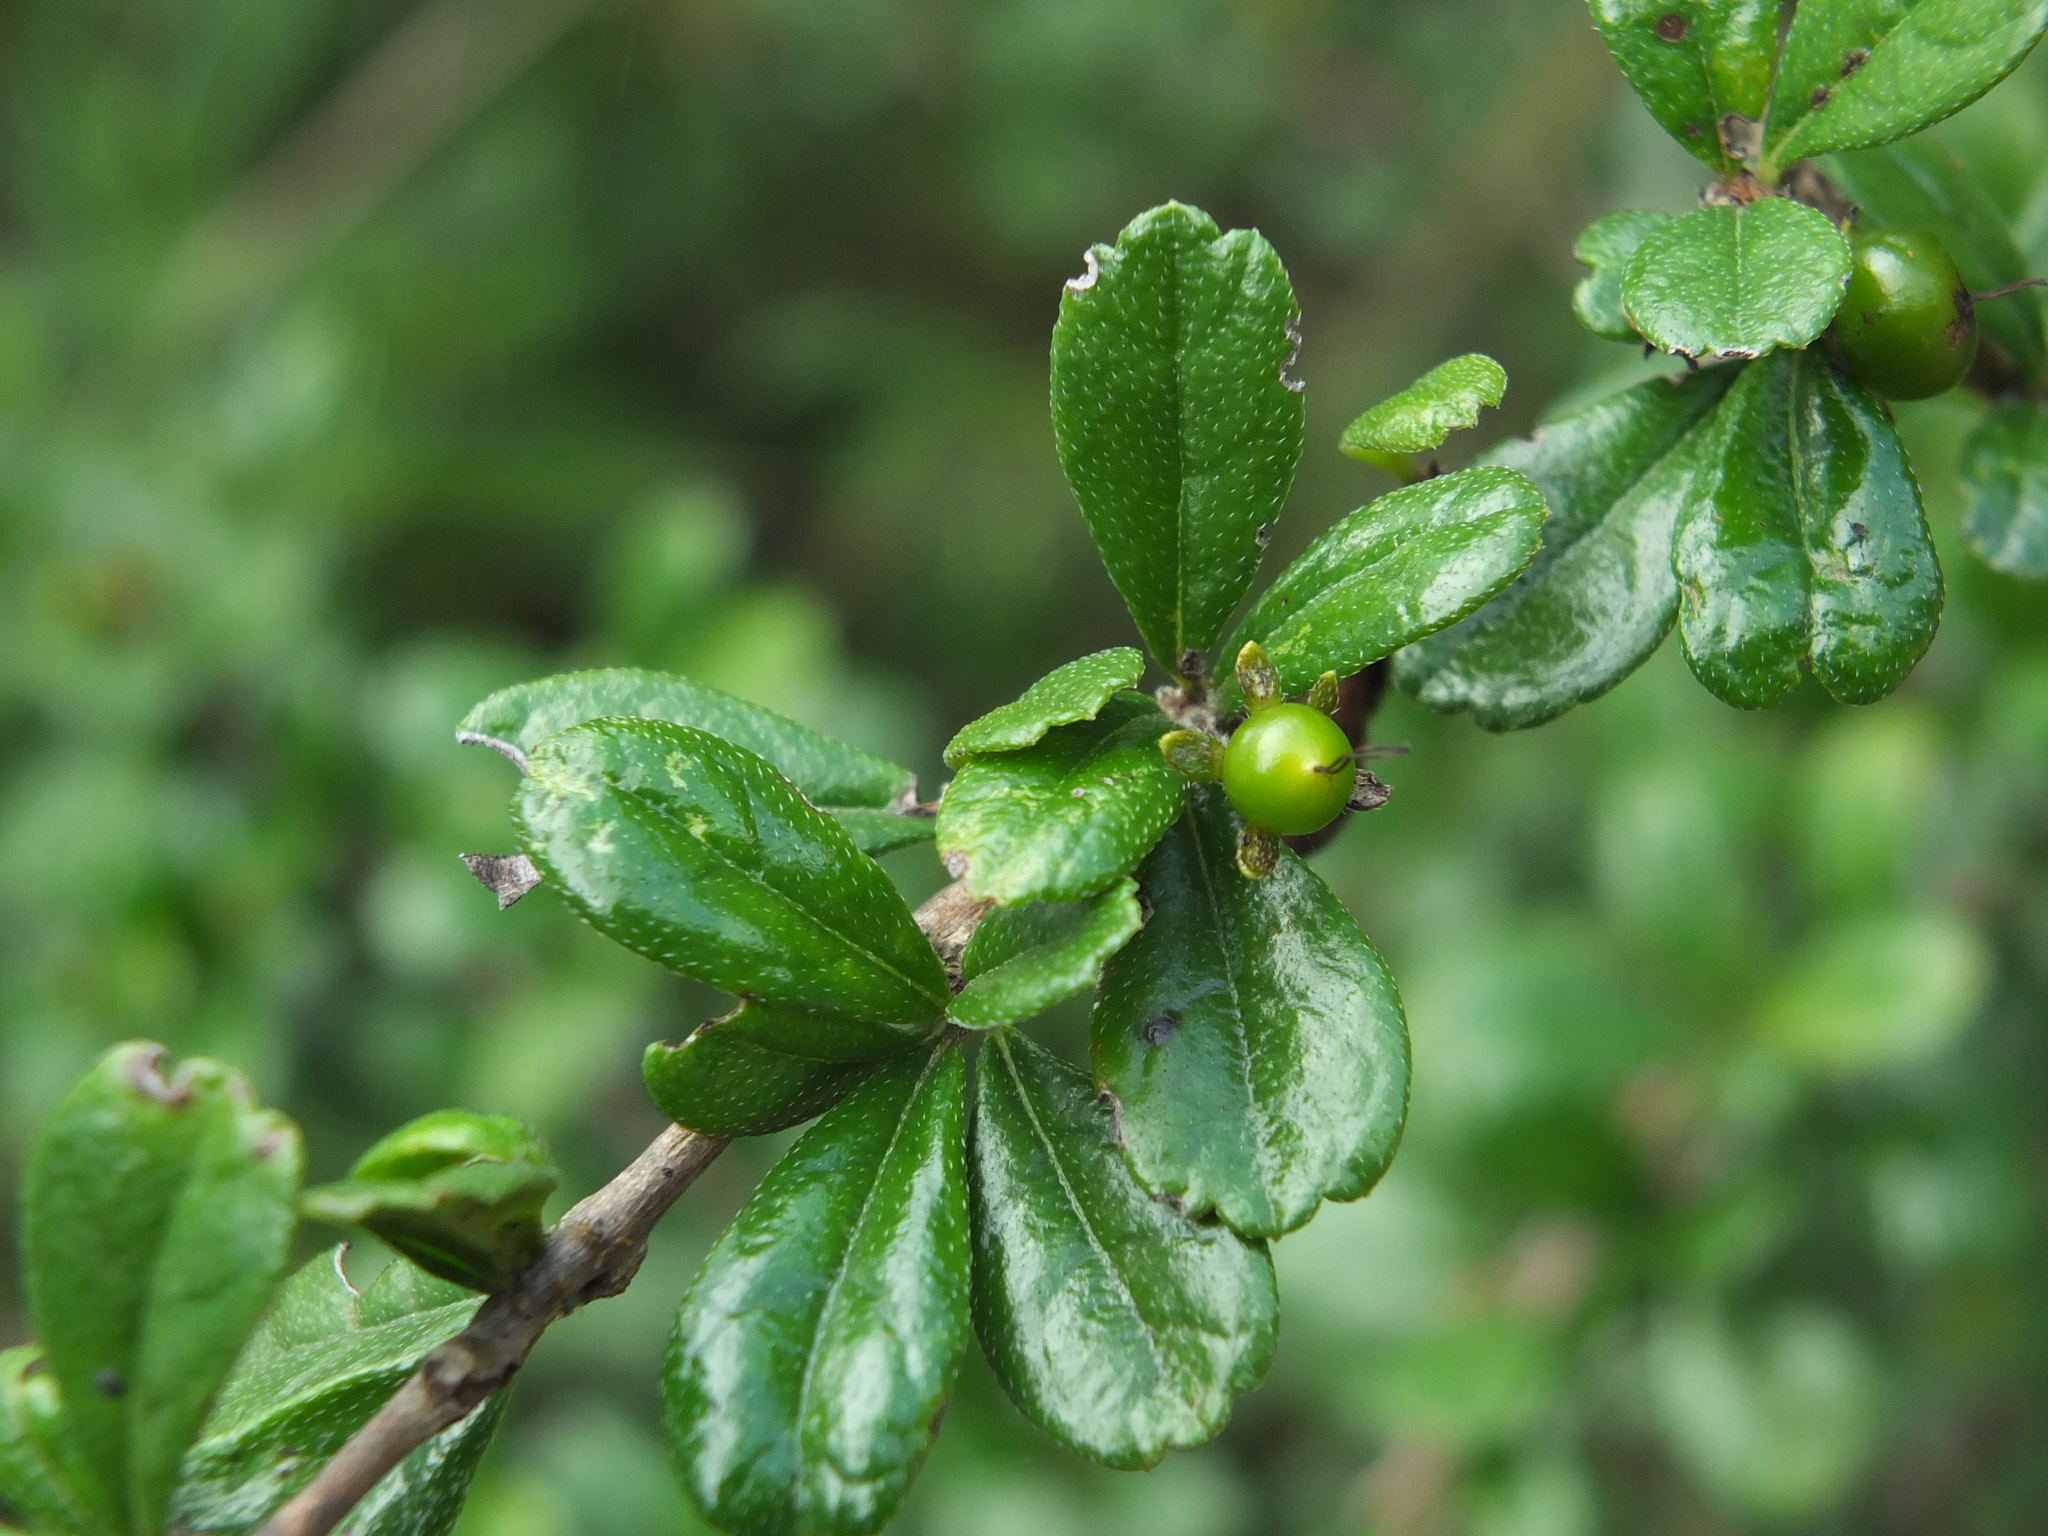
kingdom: Plantae
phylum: Tracheophyta
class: Magnoliopsida
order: Boraginales
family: Ehretiaceae
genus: Ehretia
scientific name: Ehretia microphylla
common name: Fukien-tea
